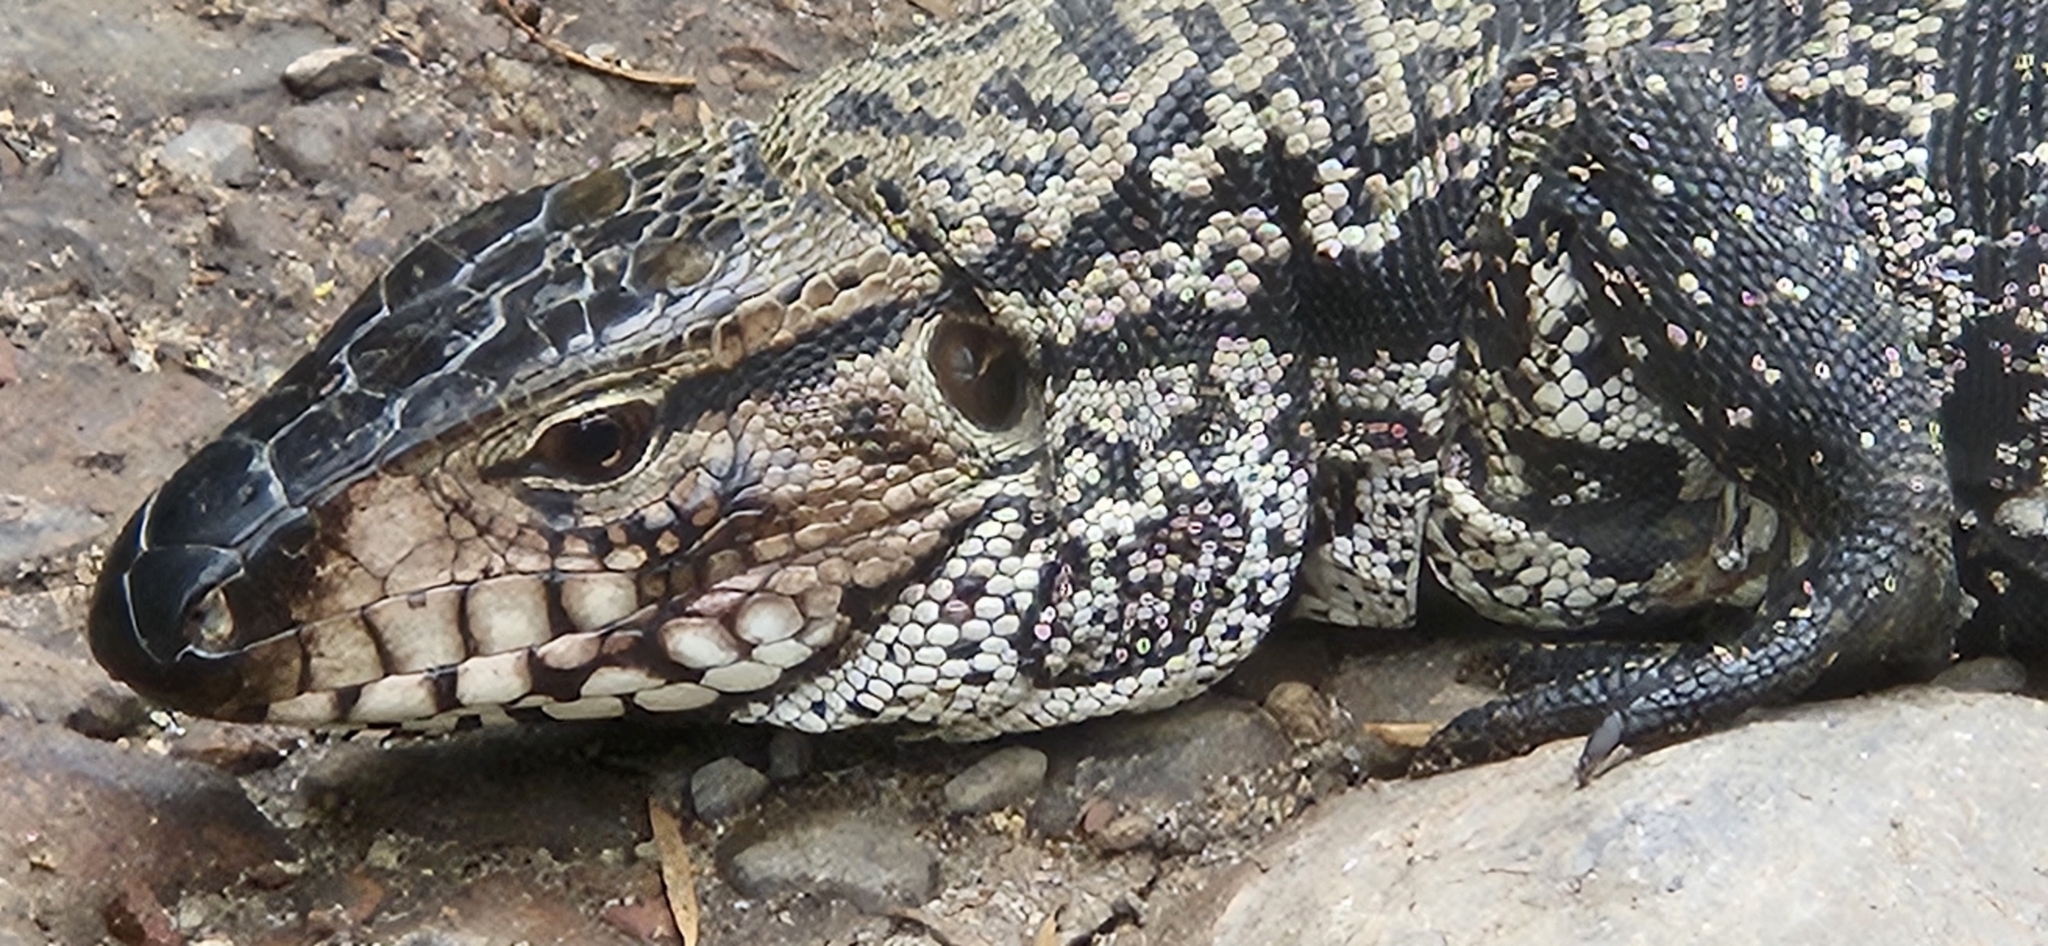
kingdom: Animalia
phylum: Chordata
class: Squamata
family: Teiidae
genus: Salvator
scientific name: Salvator merianae
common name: Argentine black and white tegu
